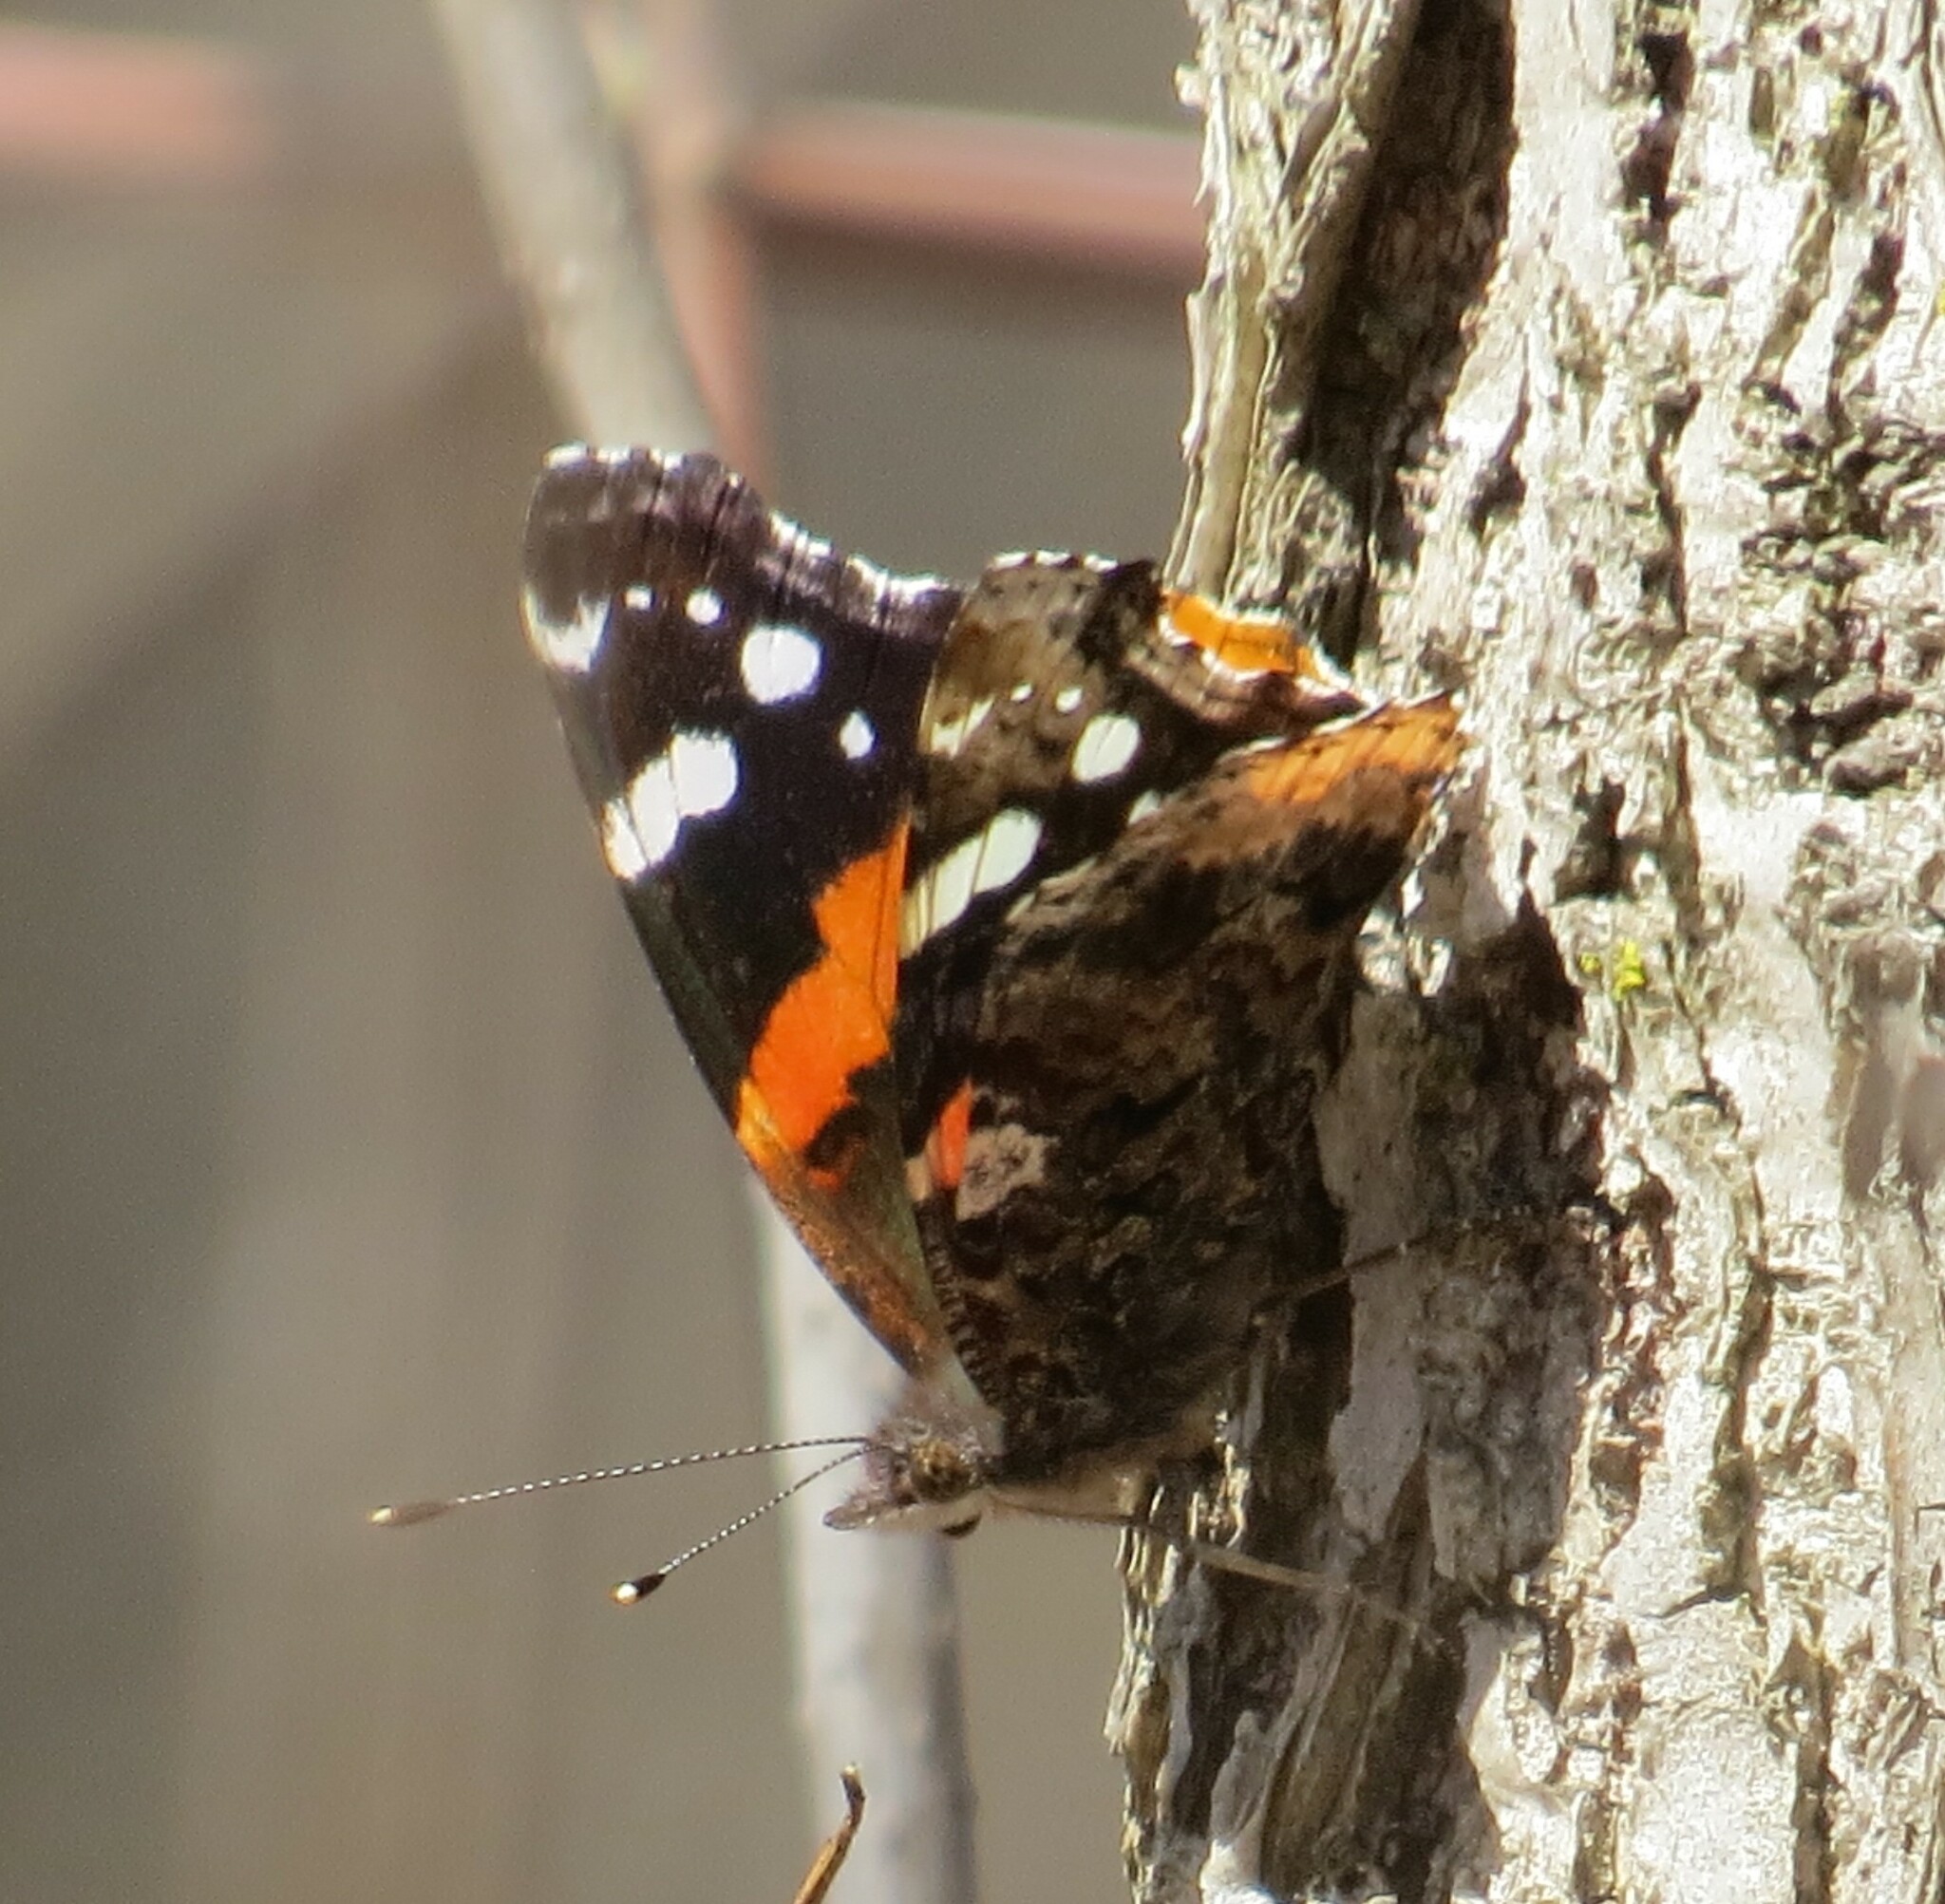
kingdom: Animalia
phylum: Arthropoda
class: Insecta
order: Lepidoptera
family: Nymphalidae
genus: Vanessa
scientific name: Vanessa atalanta
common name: Red admiral
